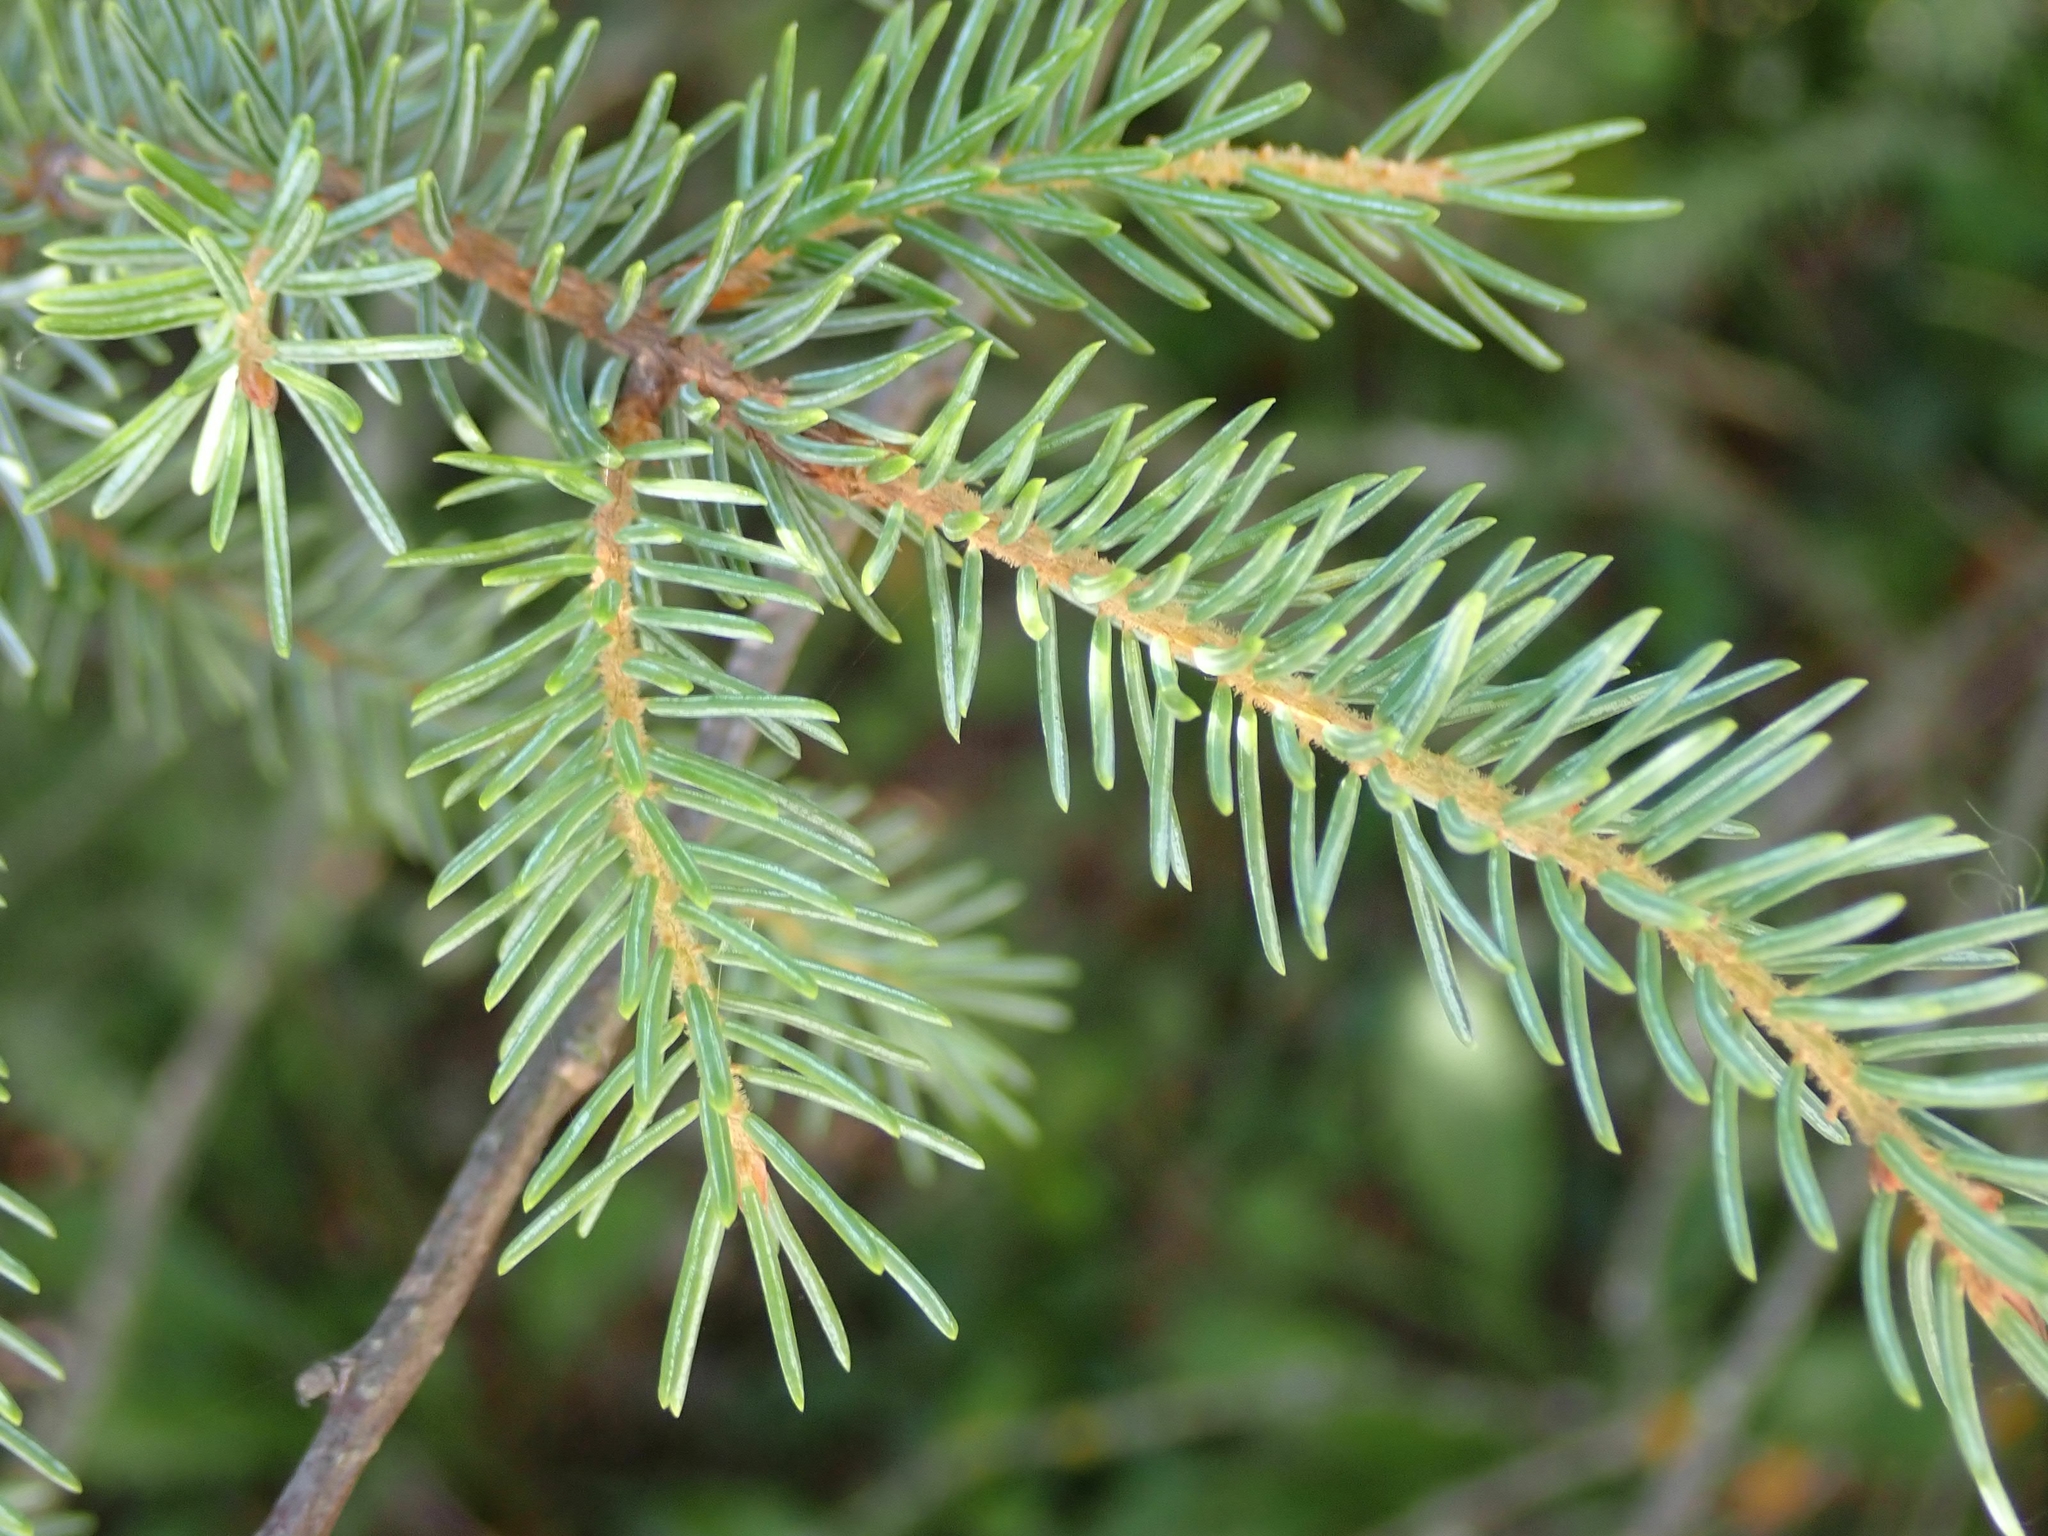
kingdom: Plantae
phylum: Tracheophyta
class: Pinopsida
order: Pinales
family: Pinaceae
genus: Picea
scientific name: Picea glauca
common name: White spruce
